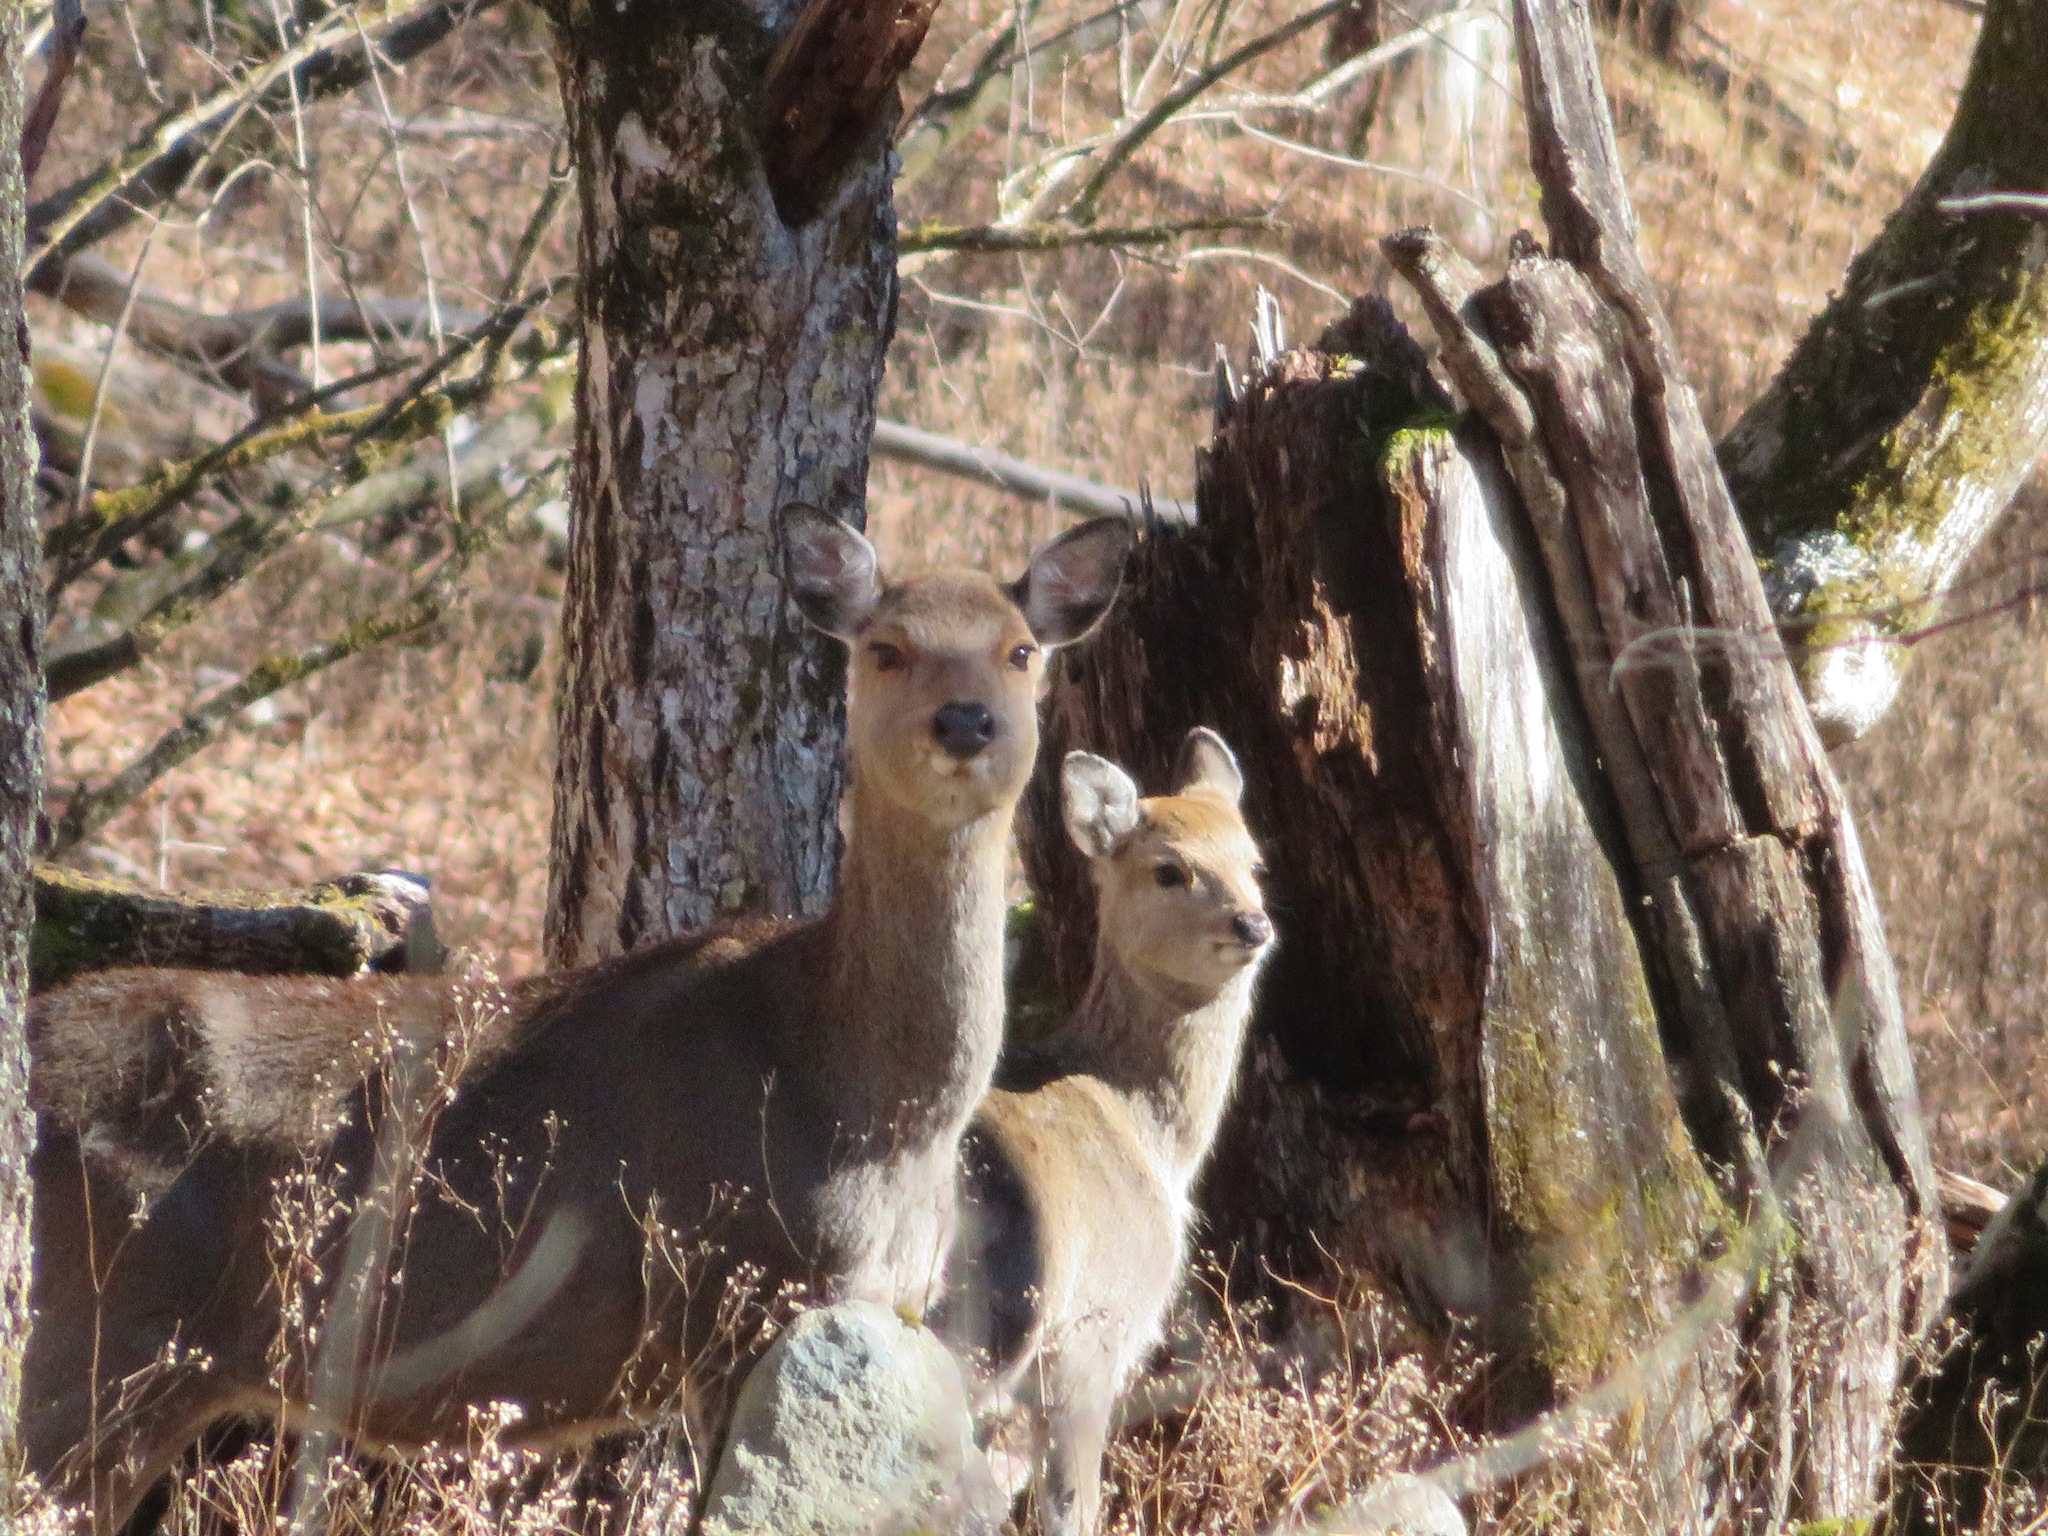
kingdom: Animalia
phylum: Chordata
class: Mammalia
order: Artiodactyla
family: Cervidae
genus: Cervus
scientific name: Cervus nippon
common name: Sika deer
